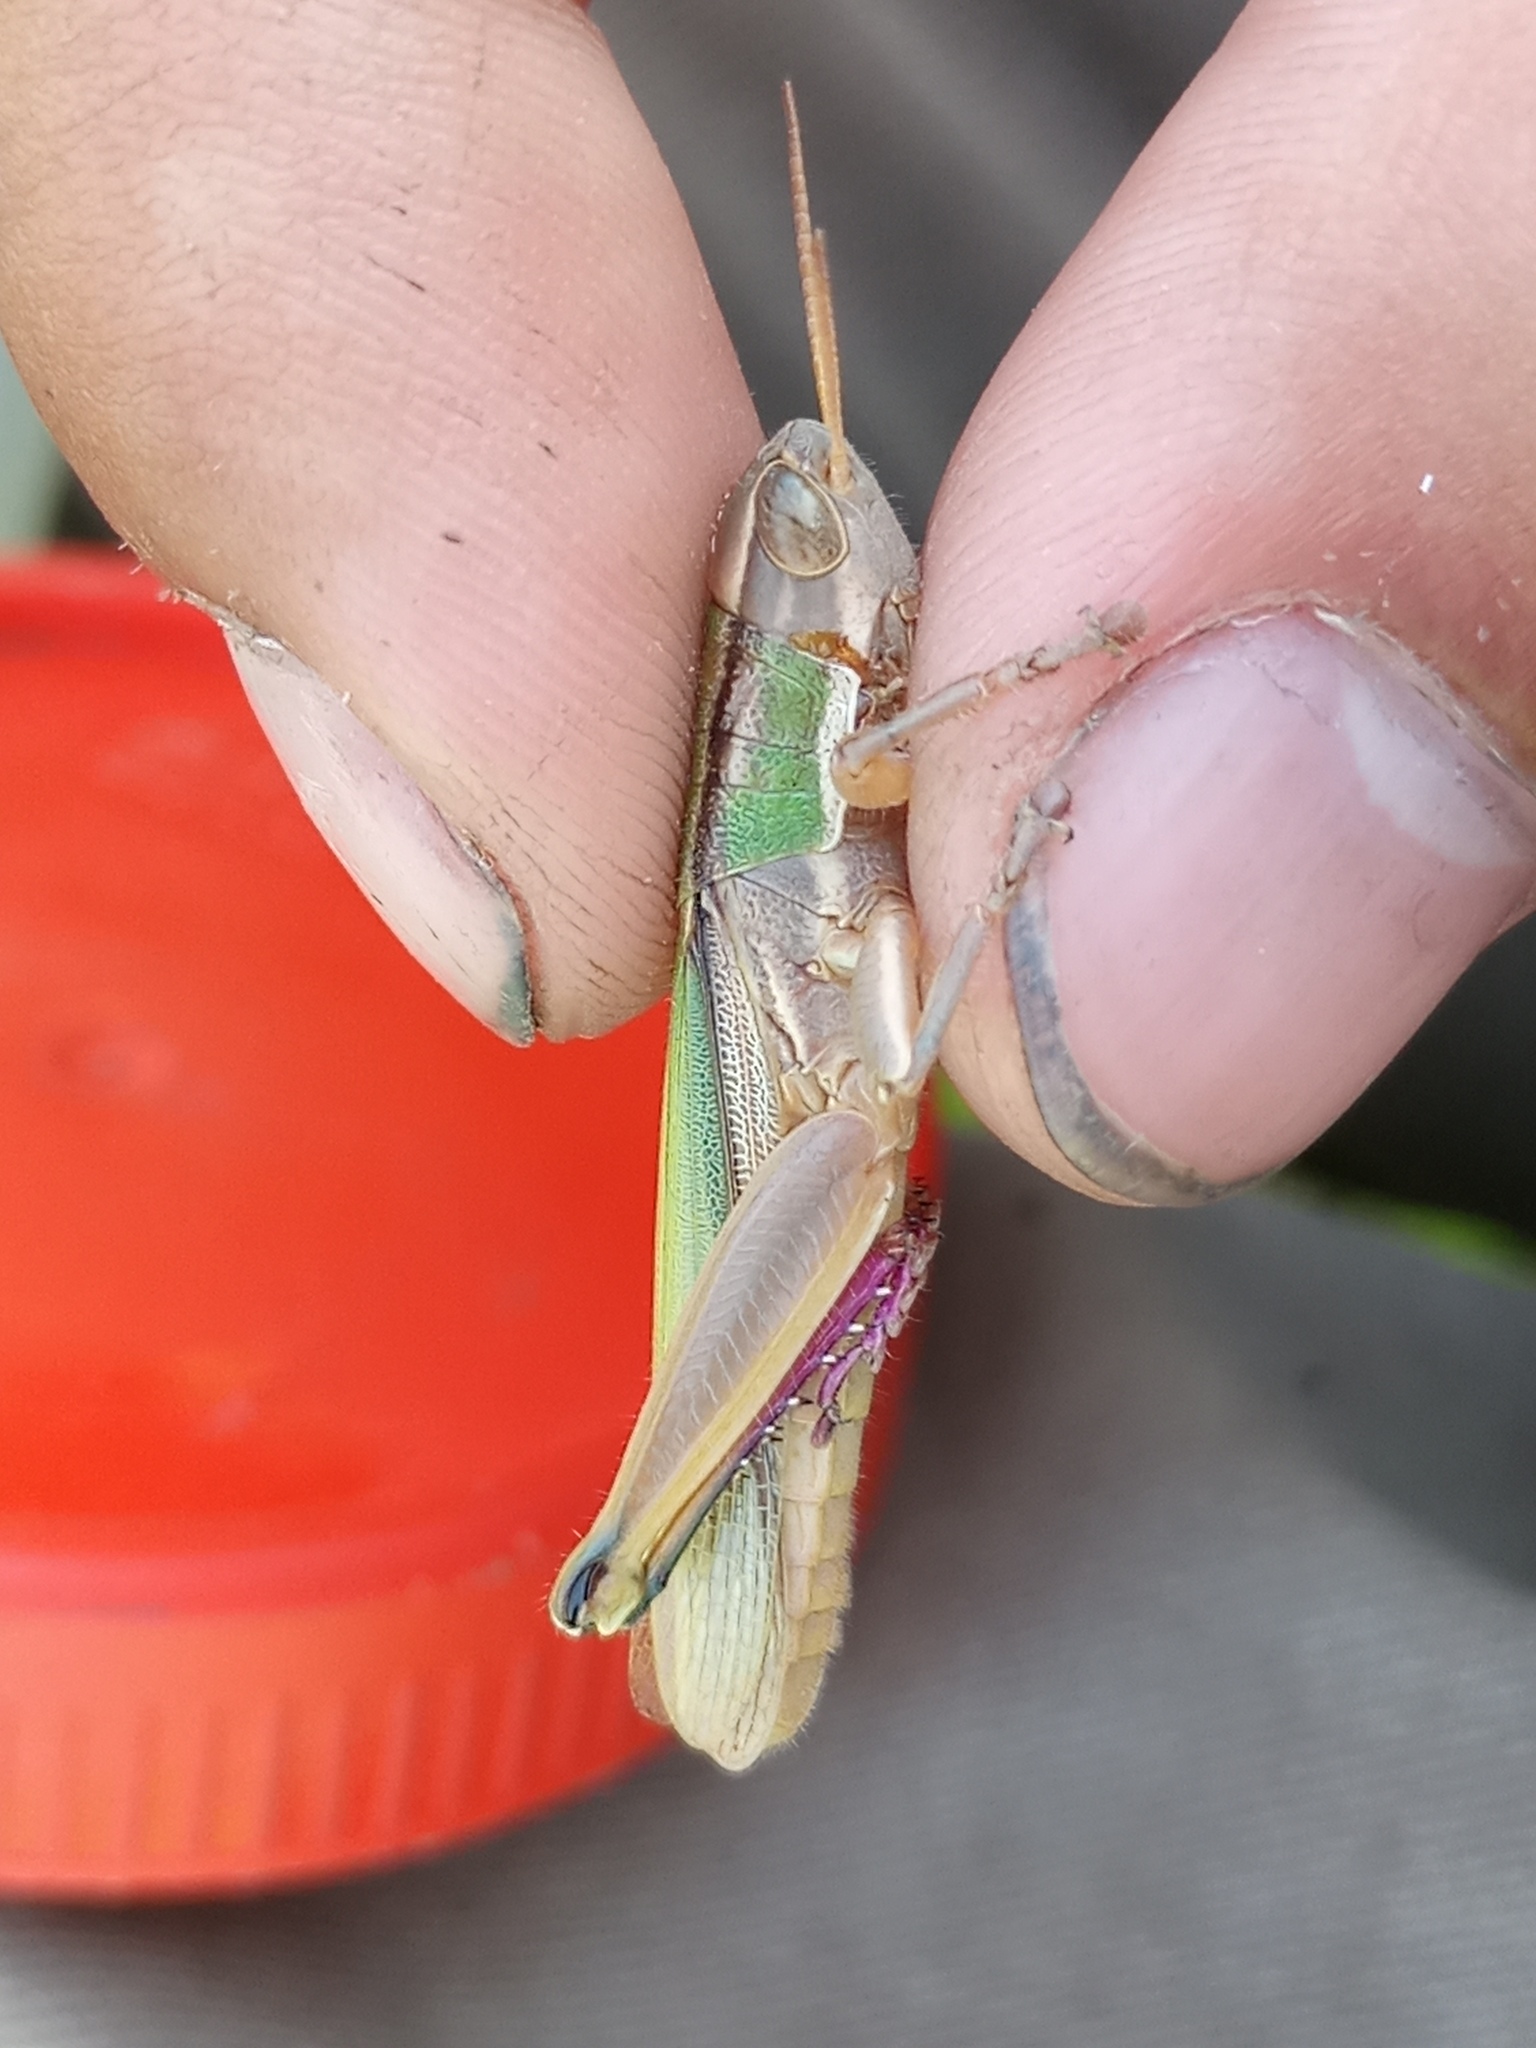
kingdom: Animalia
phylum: Arthropoda
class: Insecta
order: Orthoptera
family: Acrididae
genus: Aleuas
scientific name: Aleuas vitticollis
